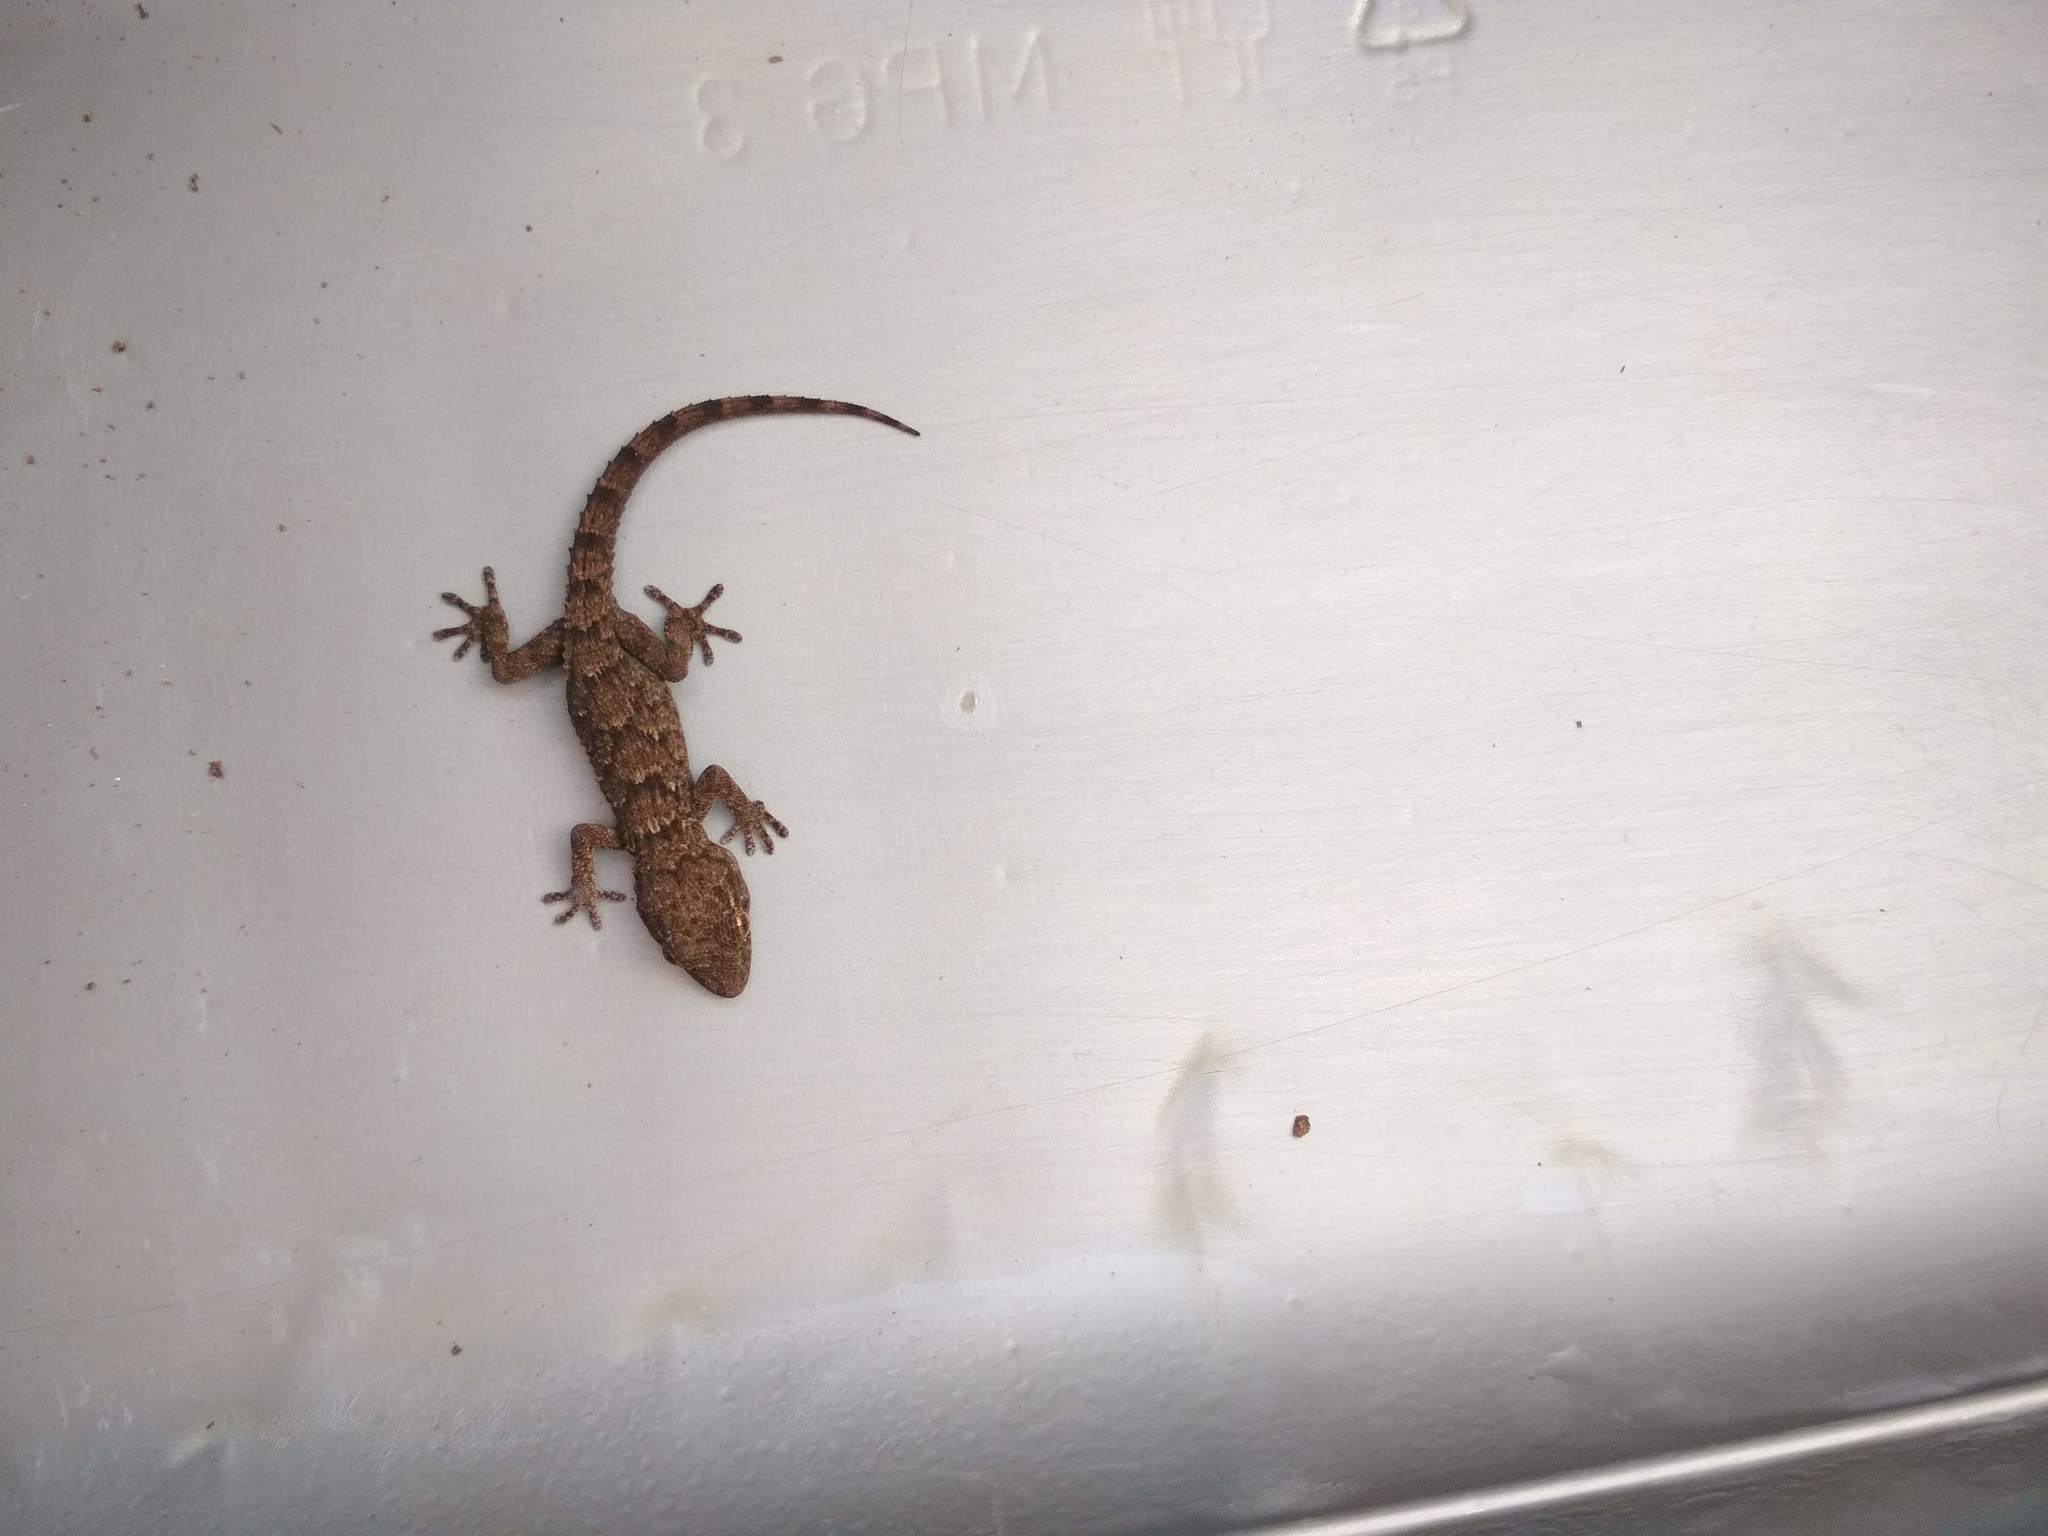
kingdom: Animalia
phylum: Chordata
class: Squamata
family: Phyllodactylidae
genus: Tarentola
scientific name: Tarentola angustimentalis
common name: East canary gecko
